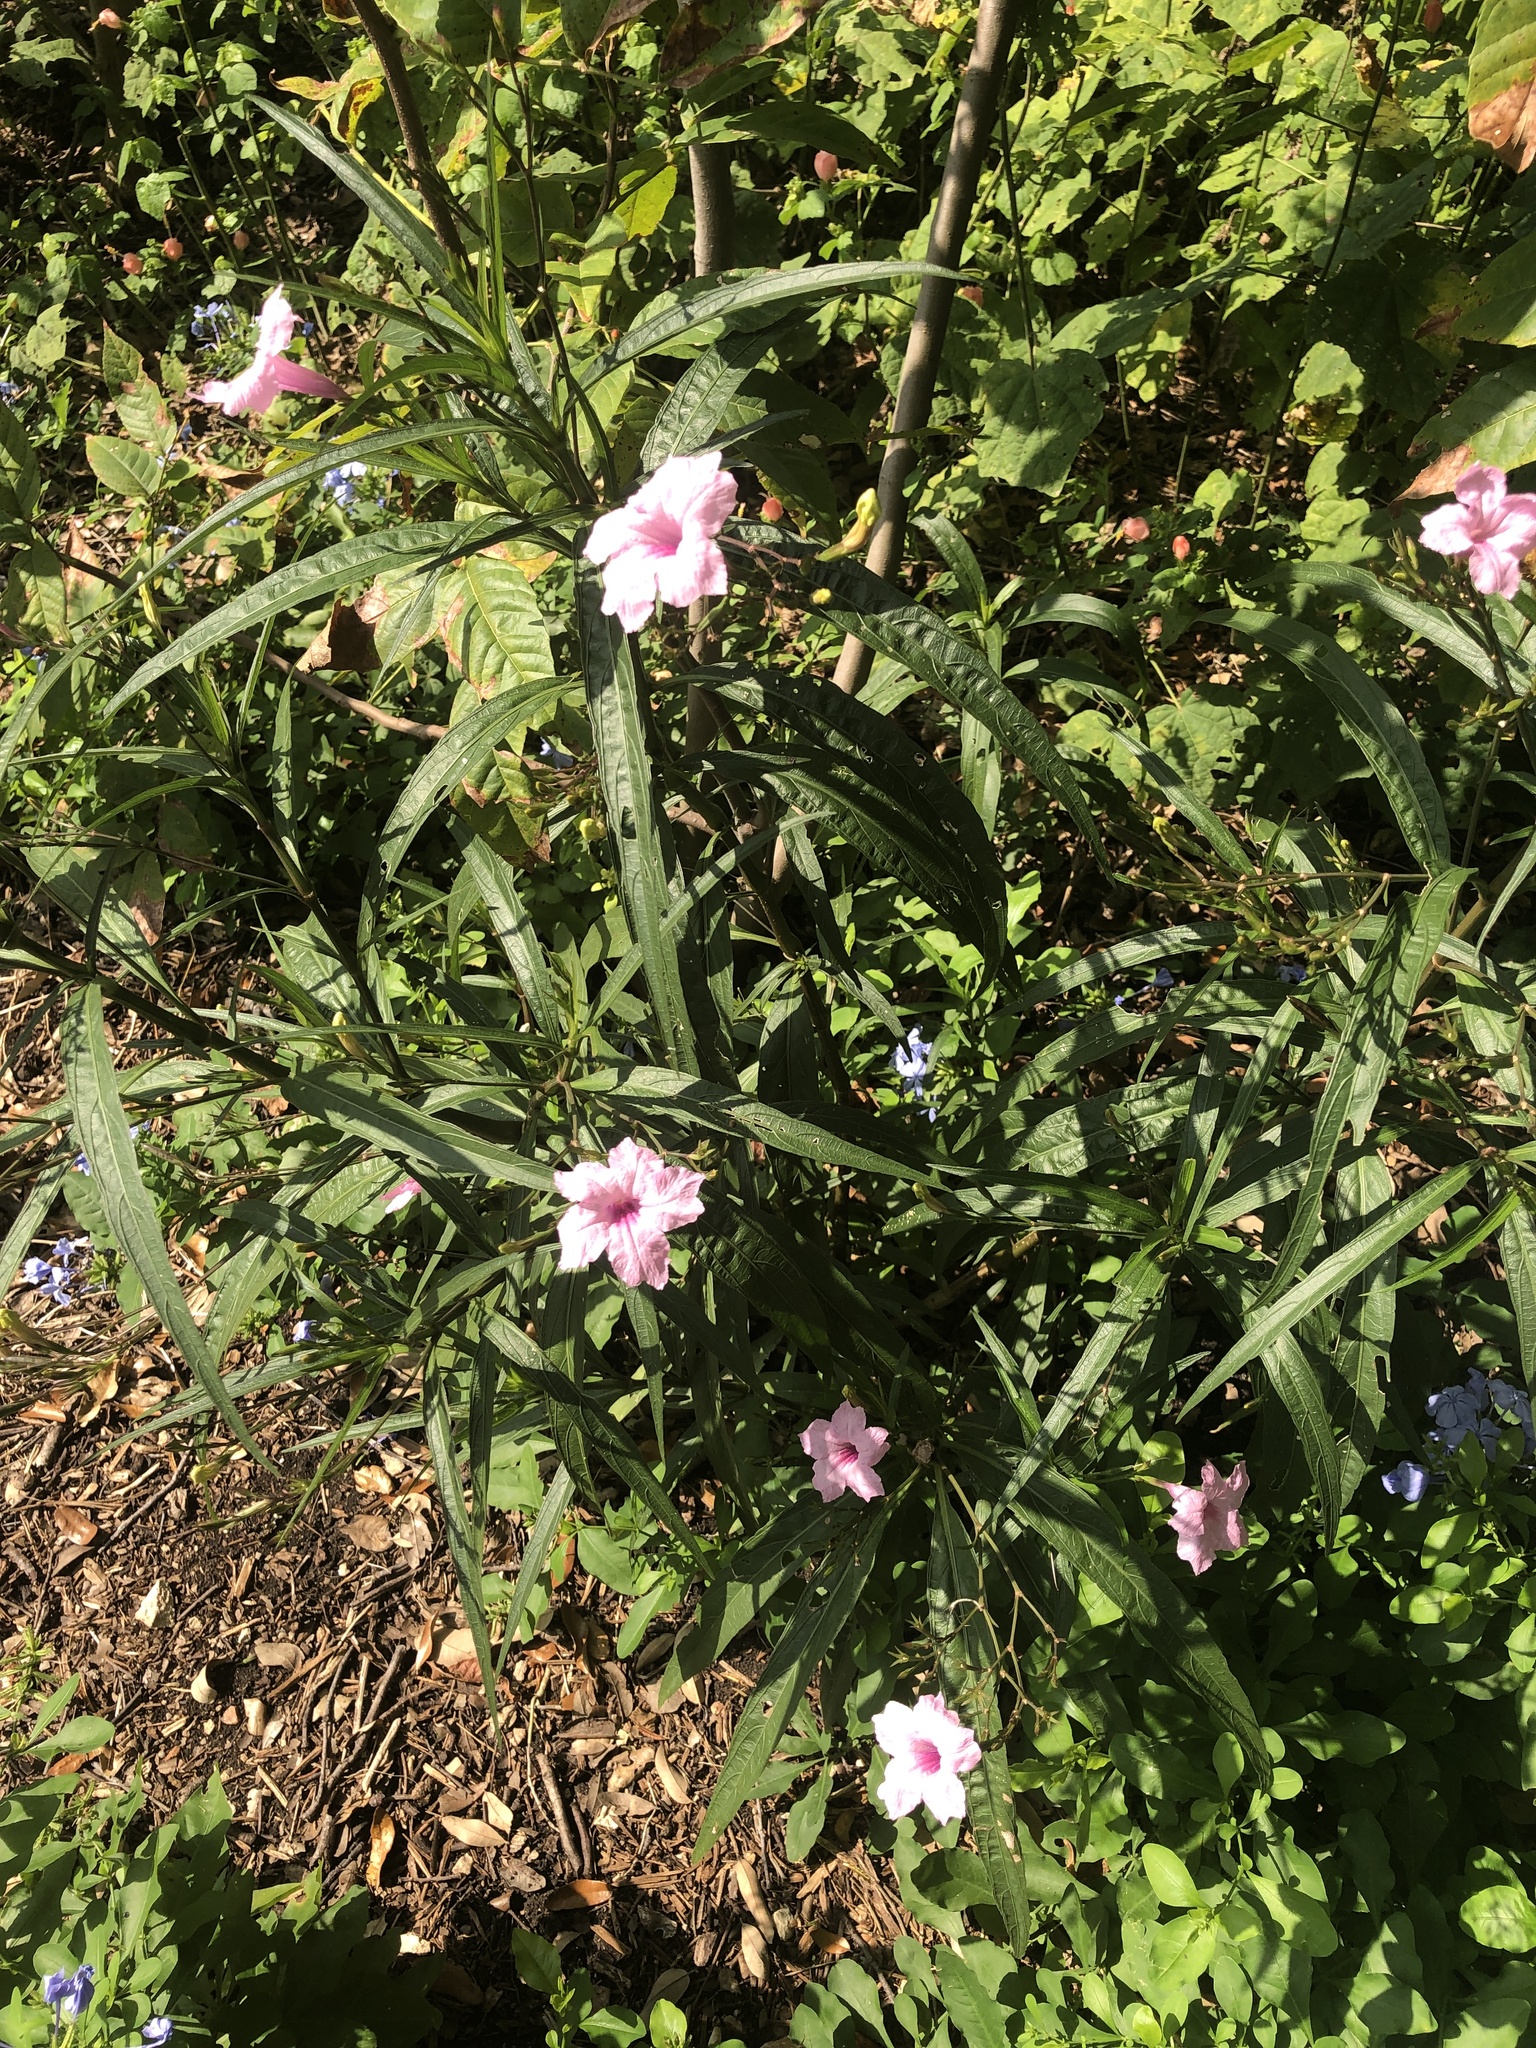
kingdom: Plantae
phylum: Tracheophyta
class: Magnoliopsida
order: Lamiales
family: Acanthaceae
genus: Ruellia
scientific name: Ruellia simplex
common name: Softseed wild petunia
